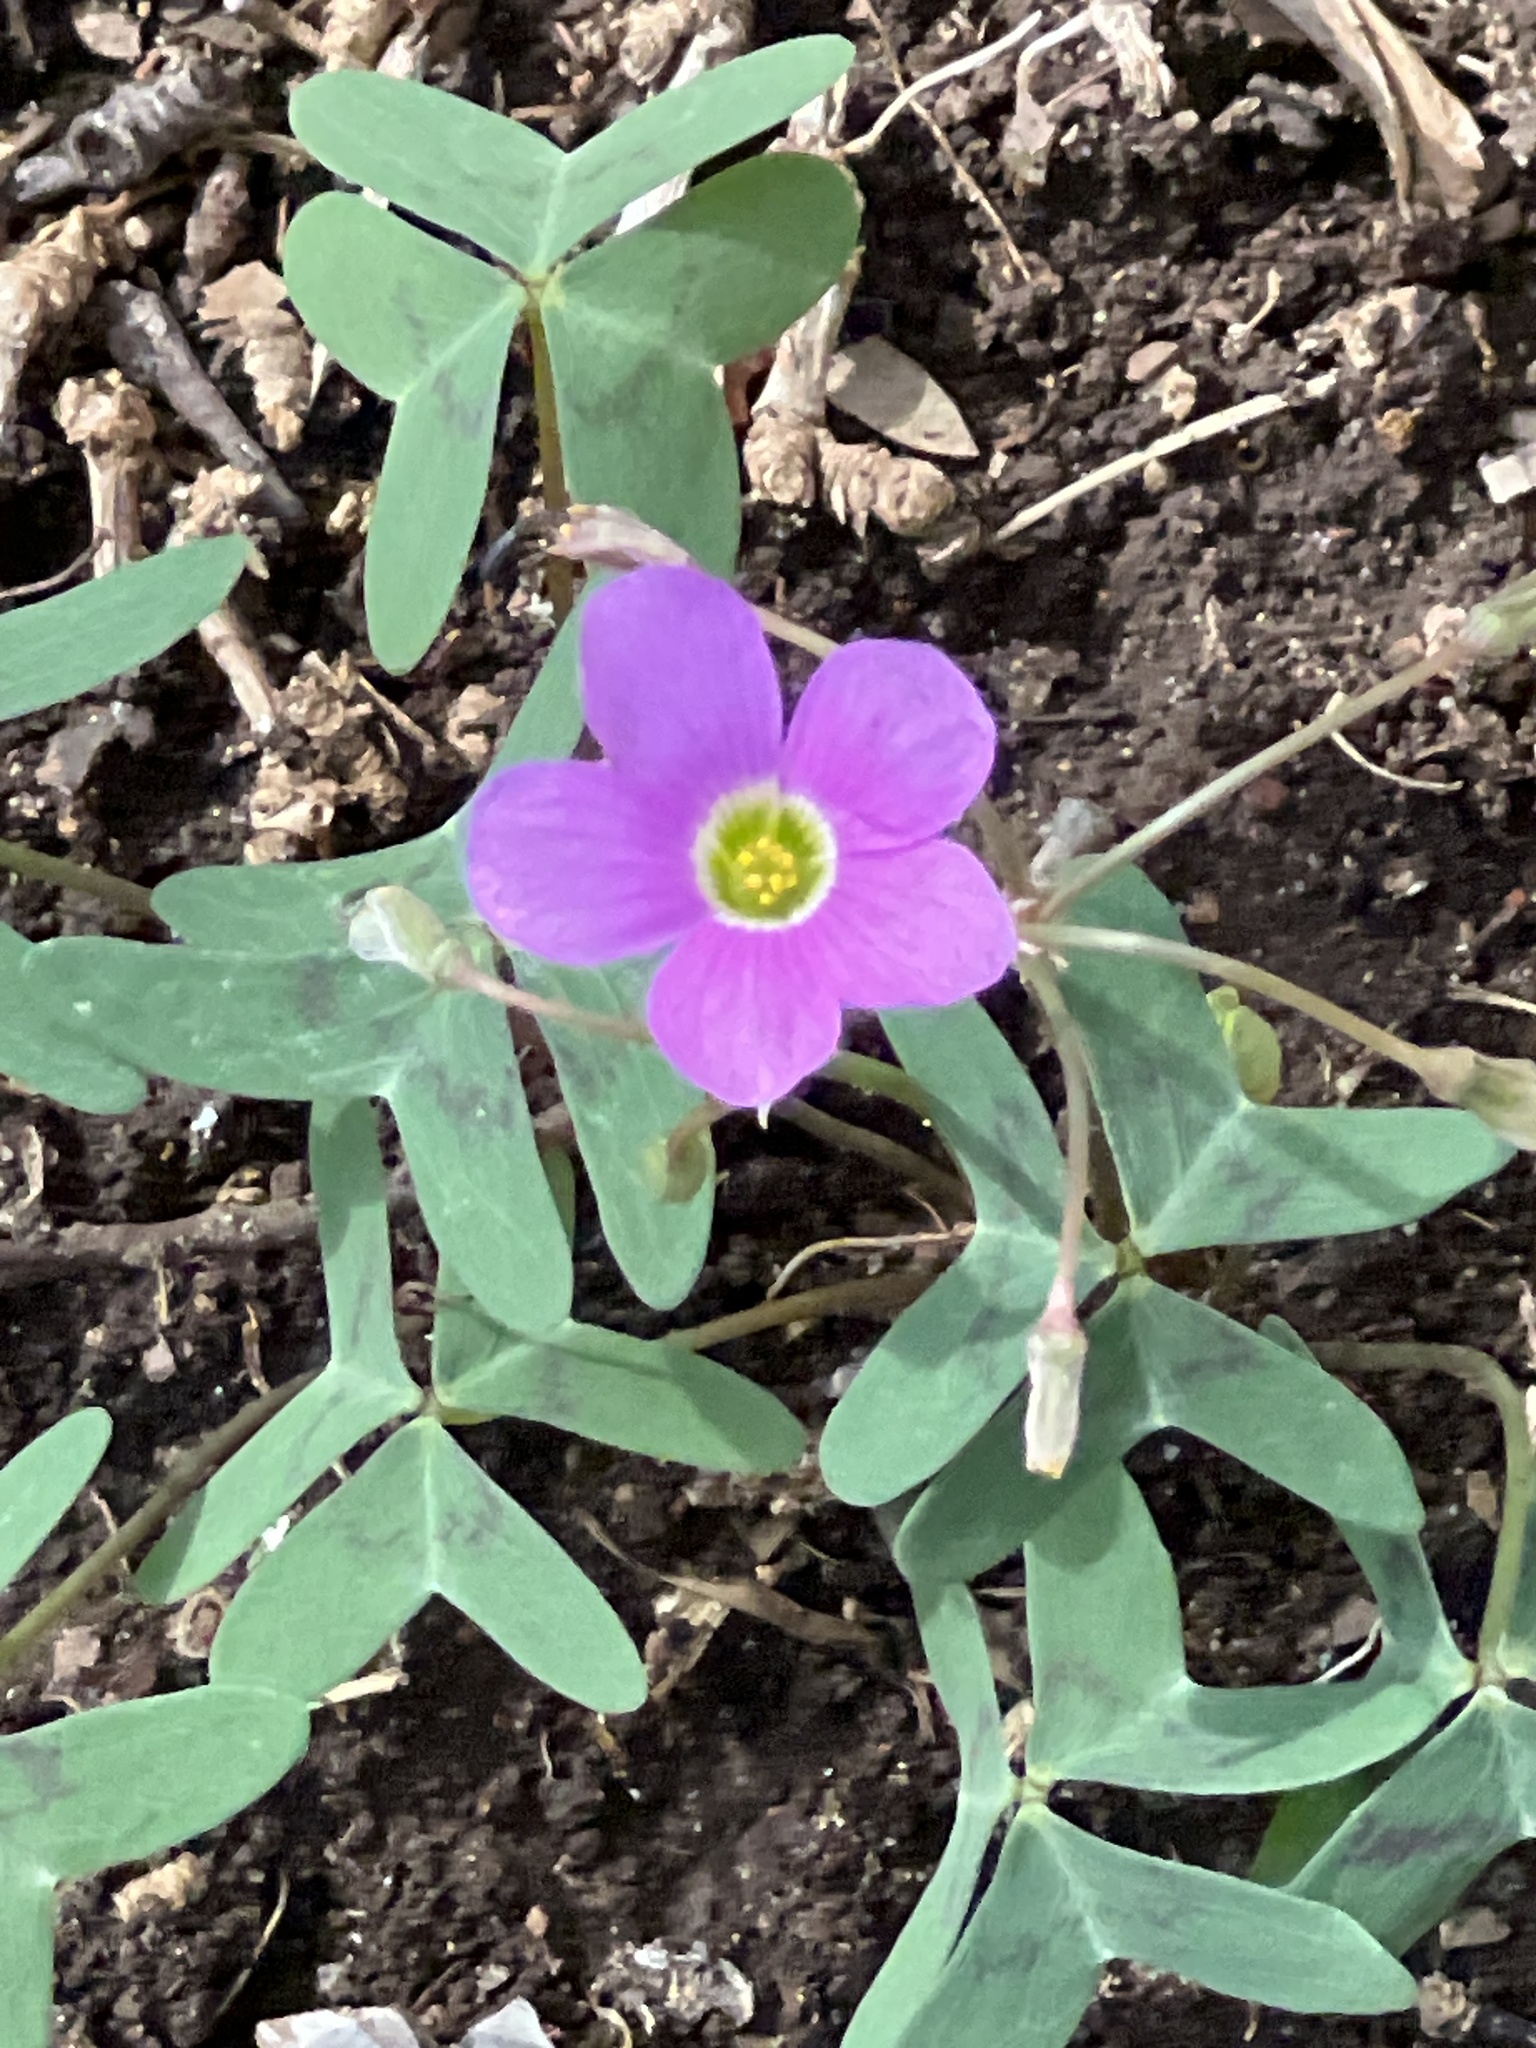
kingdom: Plantae
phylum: Tracheophyta
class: Magnoliopsida
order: Oxalidales
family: Oxalidaceae
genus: Oxalis
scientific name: Oxalis drummondii
